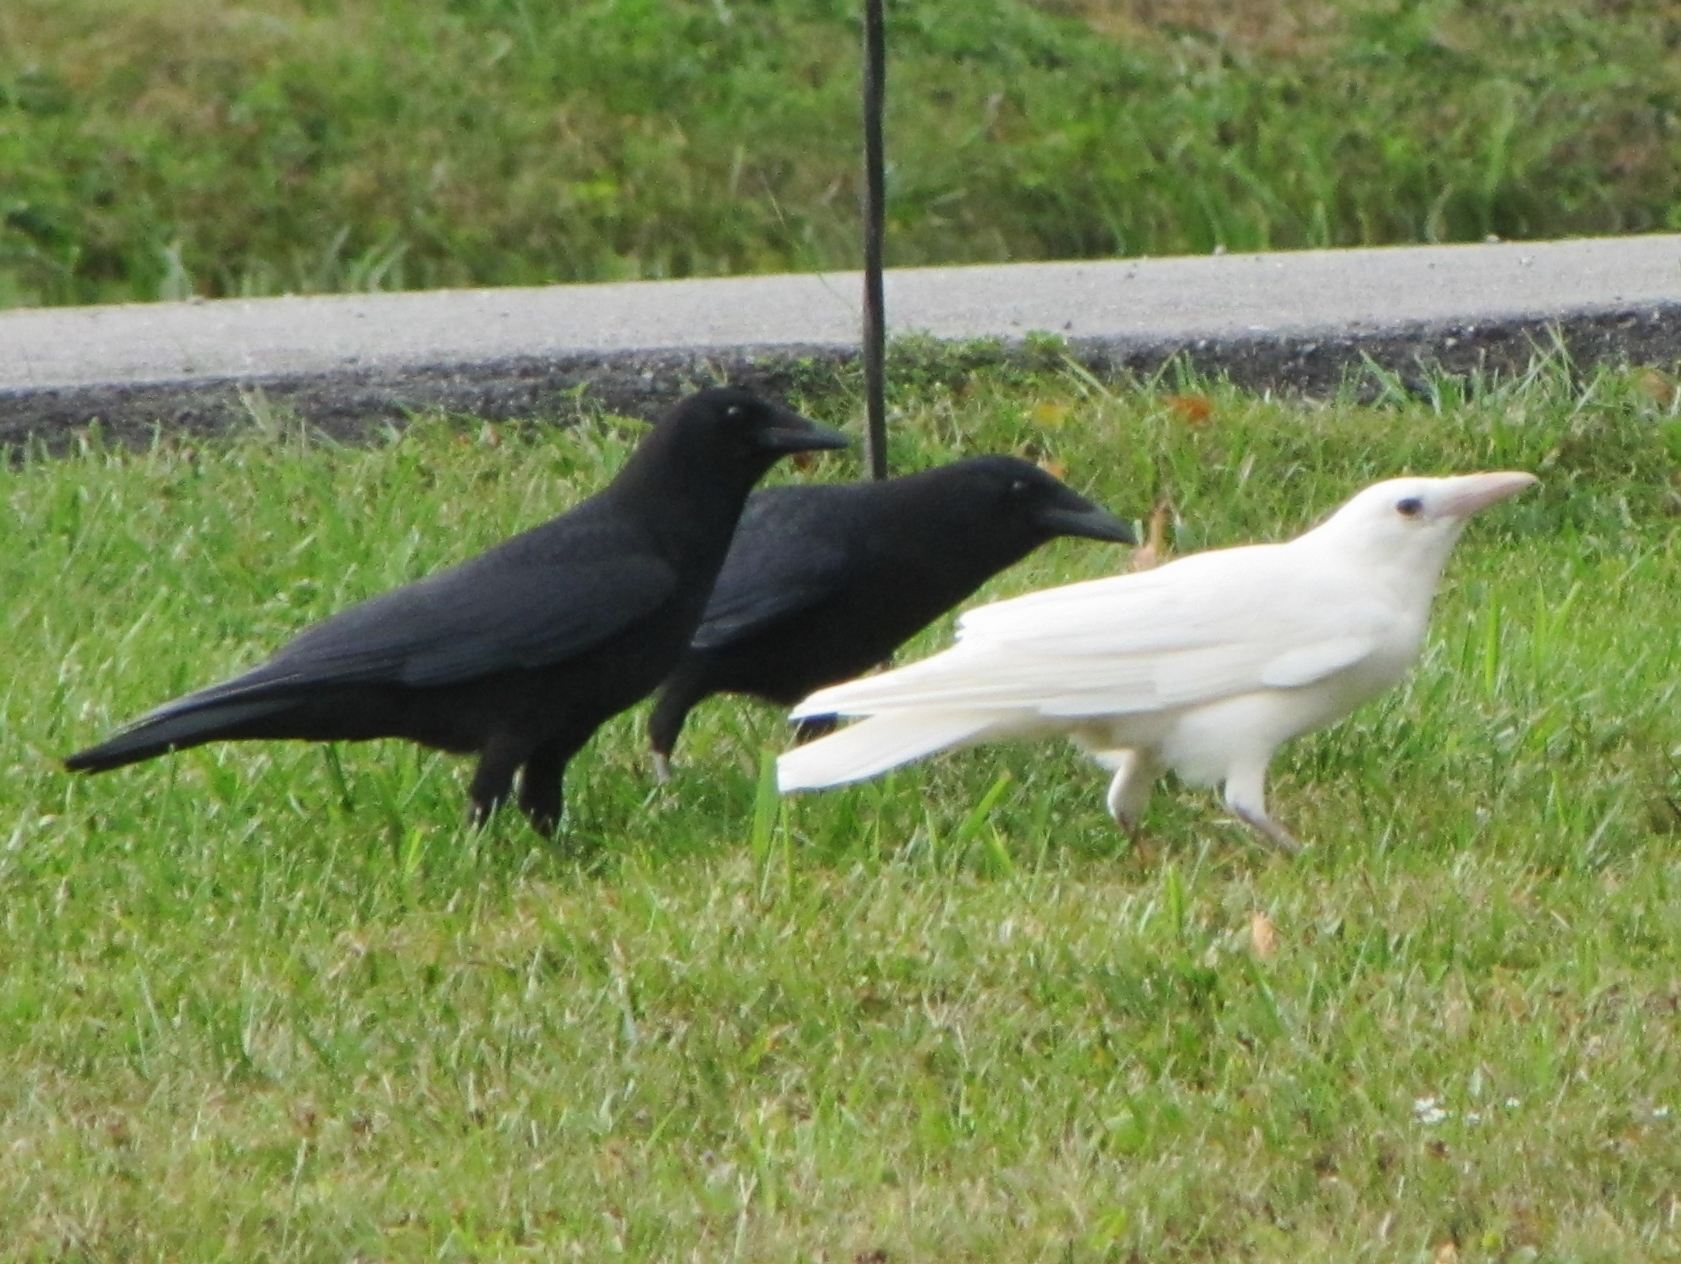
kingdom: Animalia
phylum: Chordata
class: Aves
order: Passeriformes
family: Corvidae
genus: Corvus
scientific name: Corvus brachyrhynchos
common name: American crow
